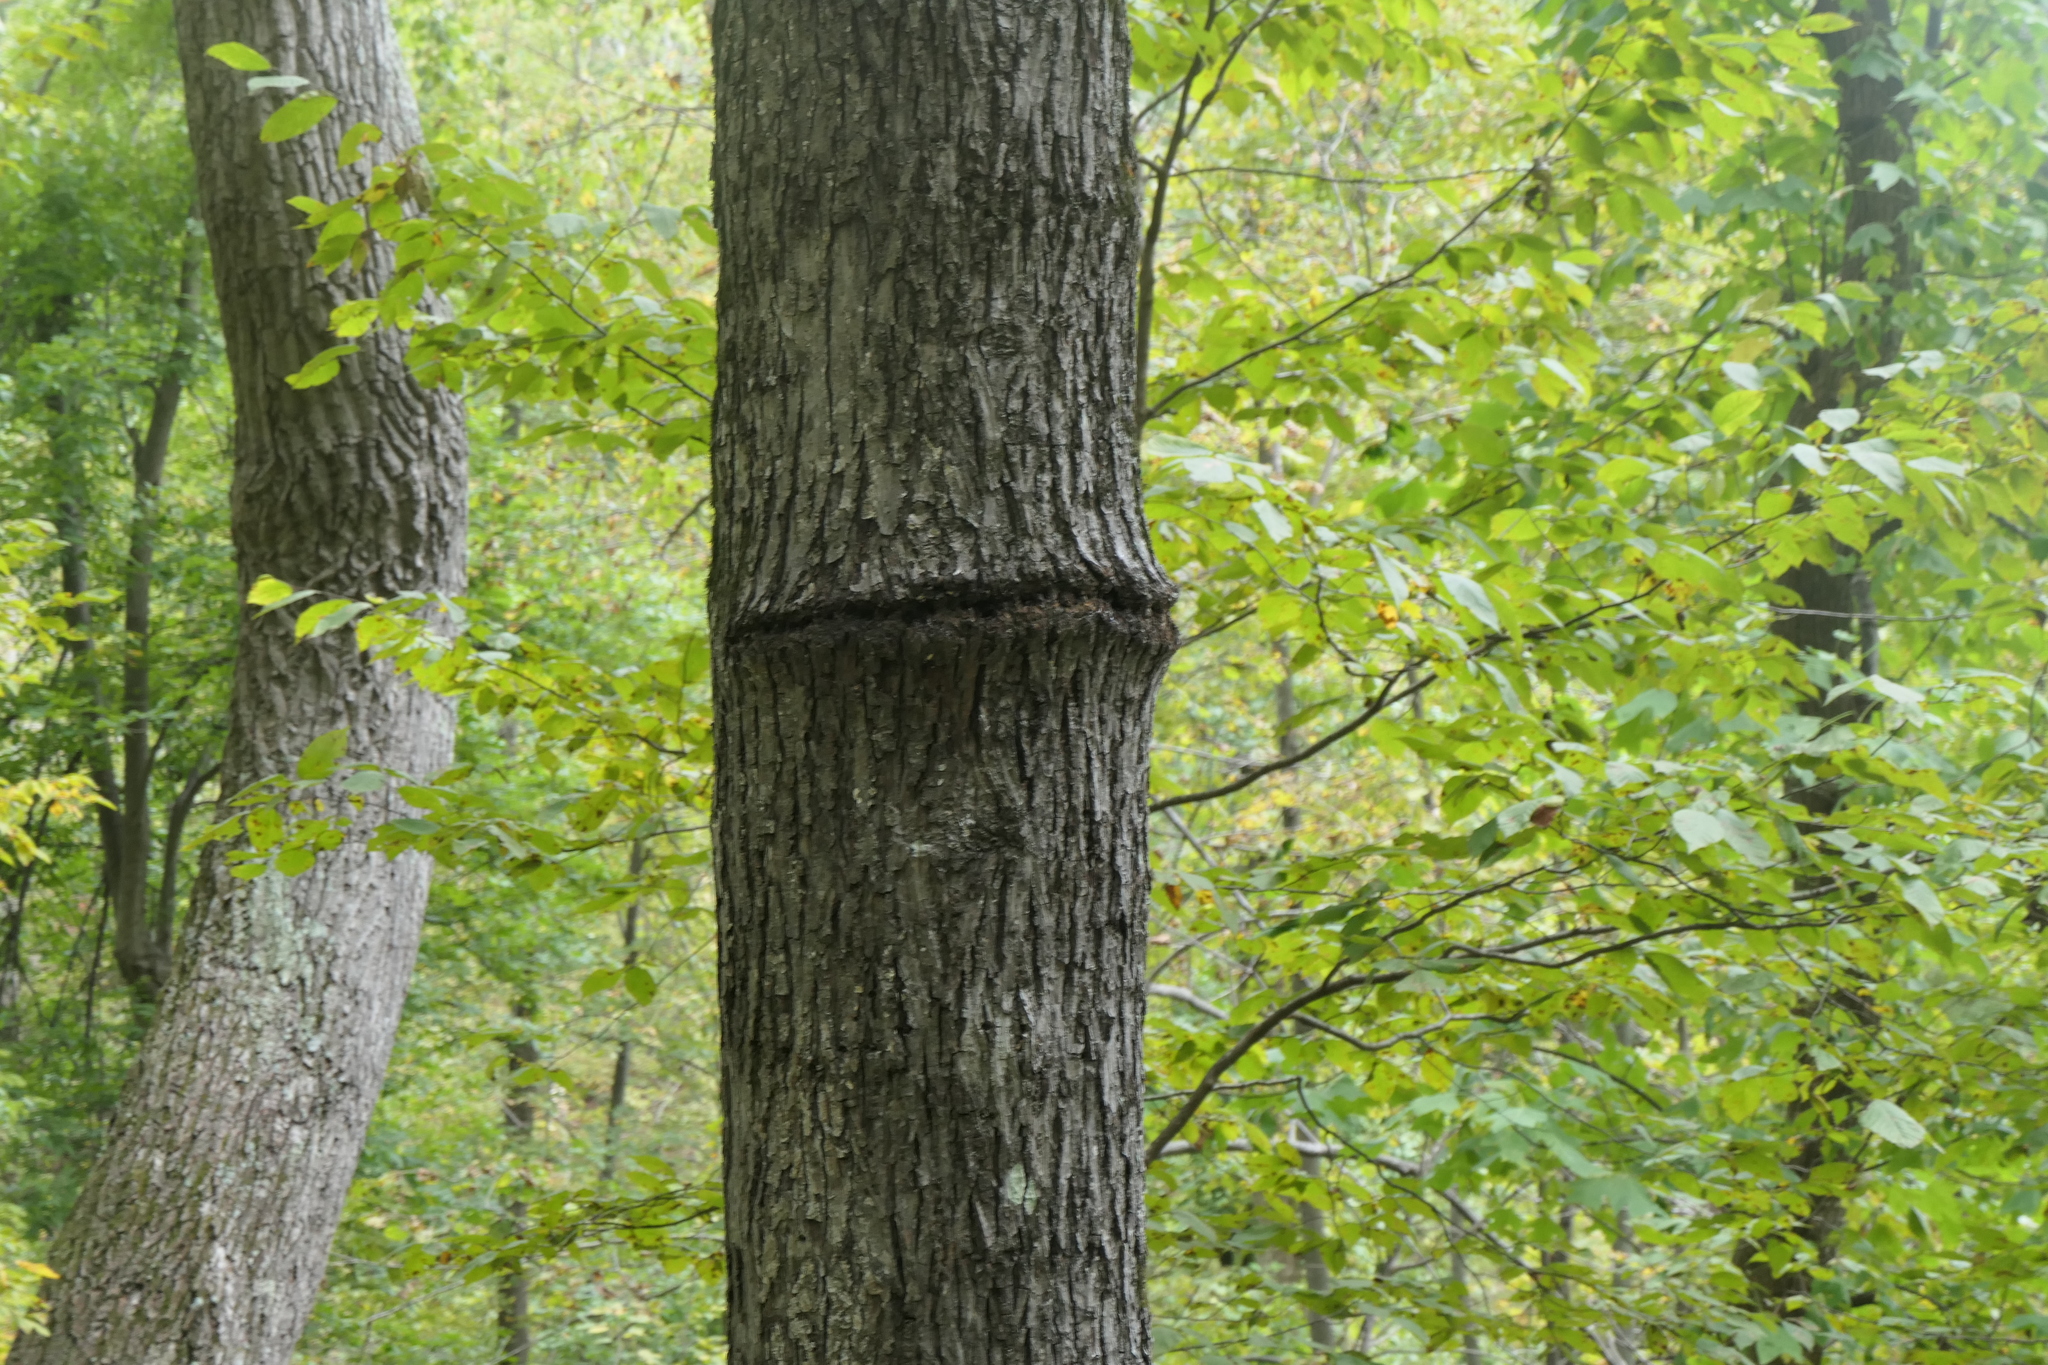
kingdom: Animalia
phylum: Chordata
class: Aves
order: Piciformes
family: Picidae
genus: Sphyrapicus
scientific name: Sphyrapicus varius
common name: Yellow-bellied sapsucker
